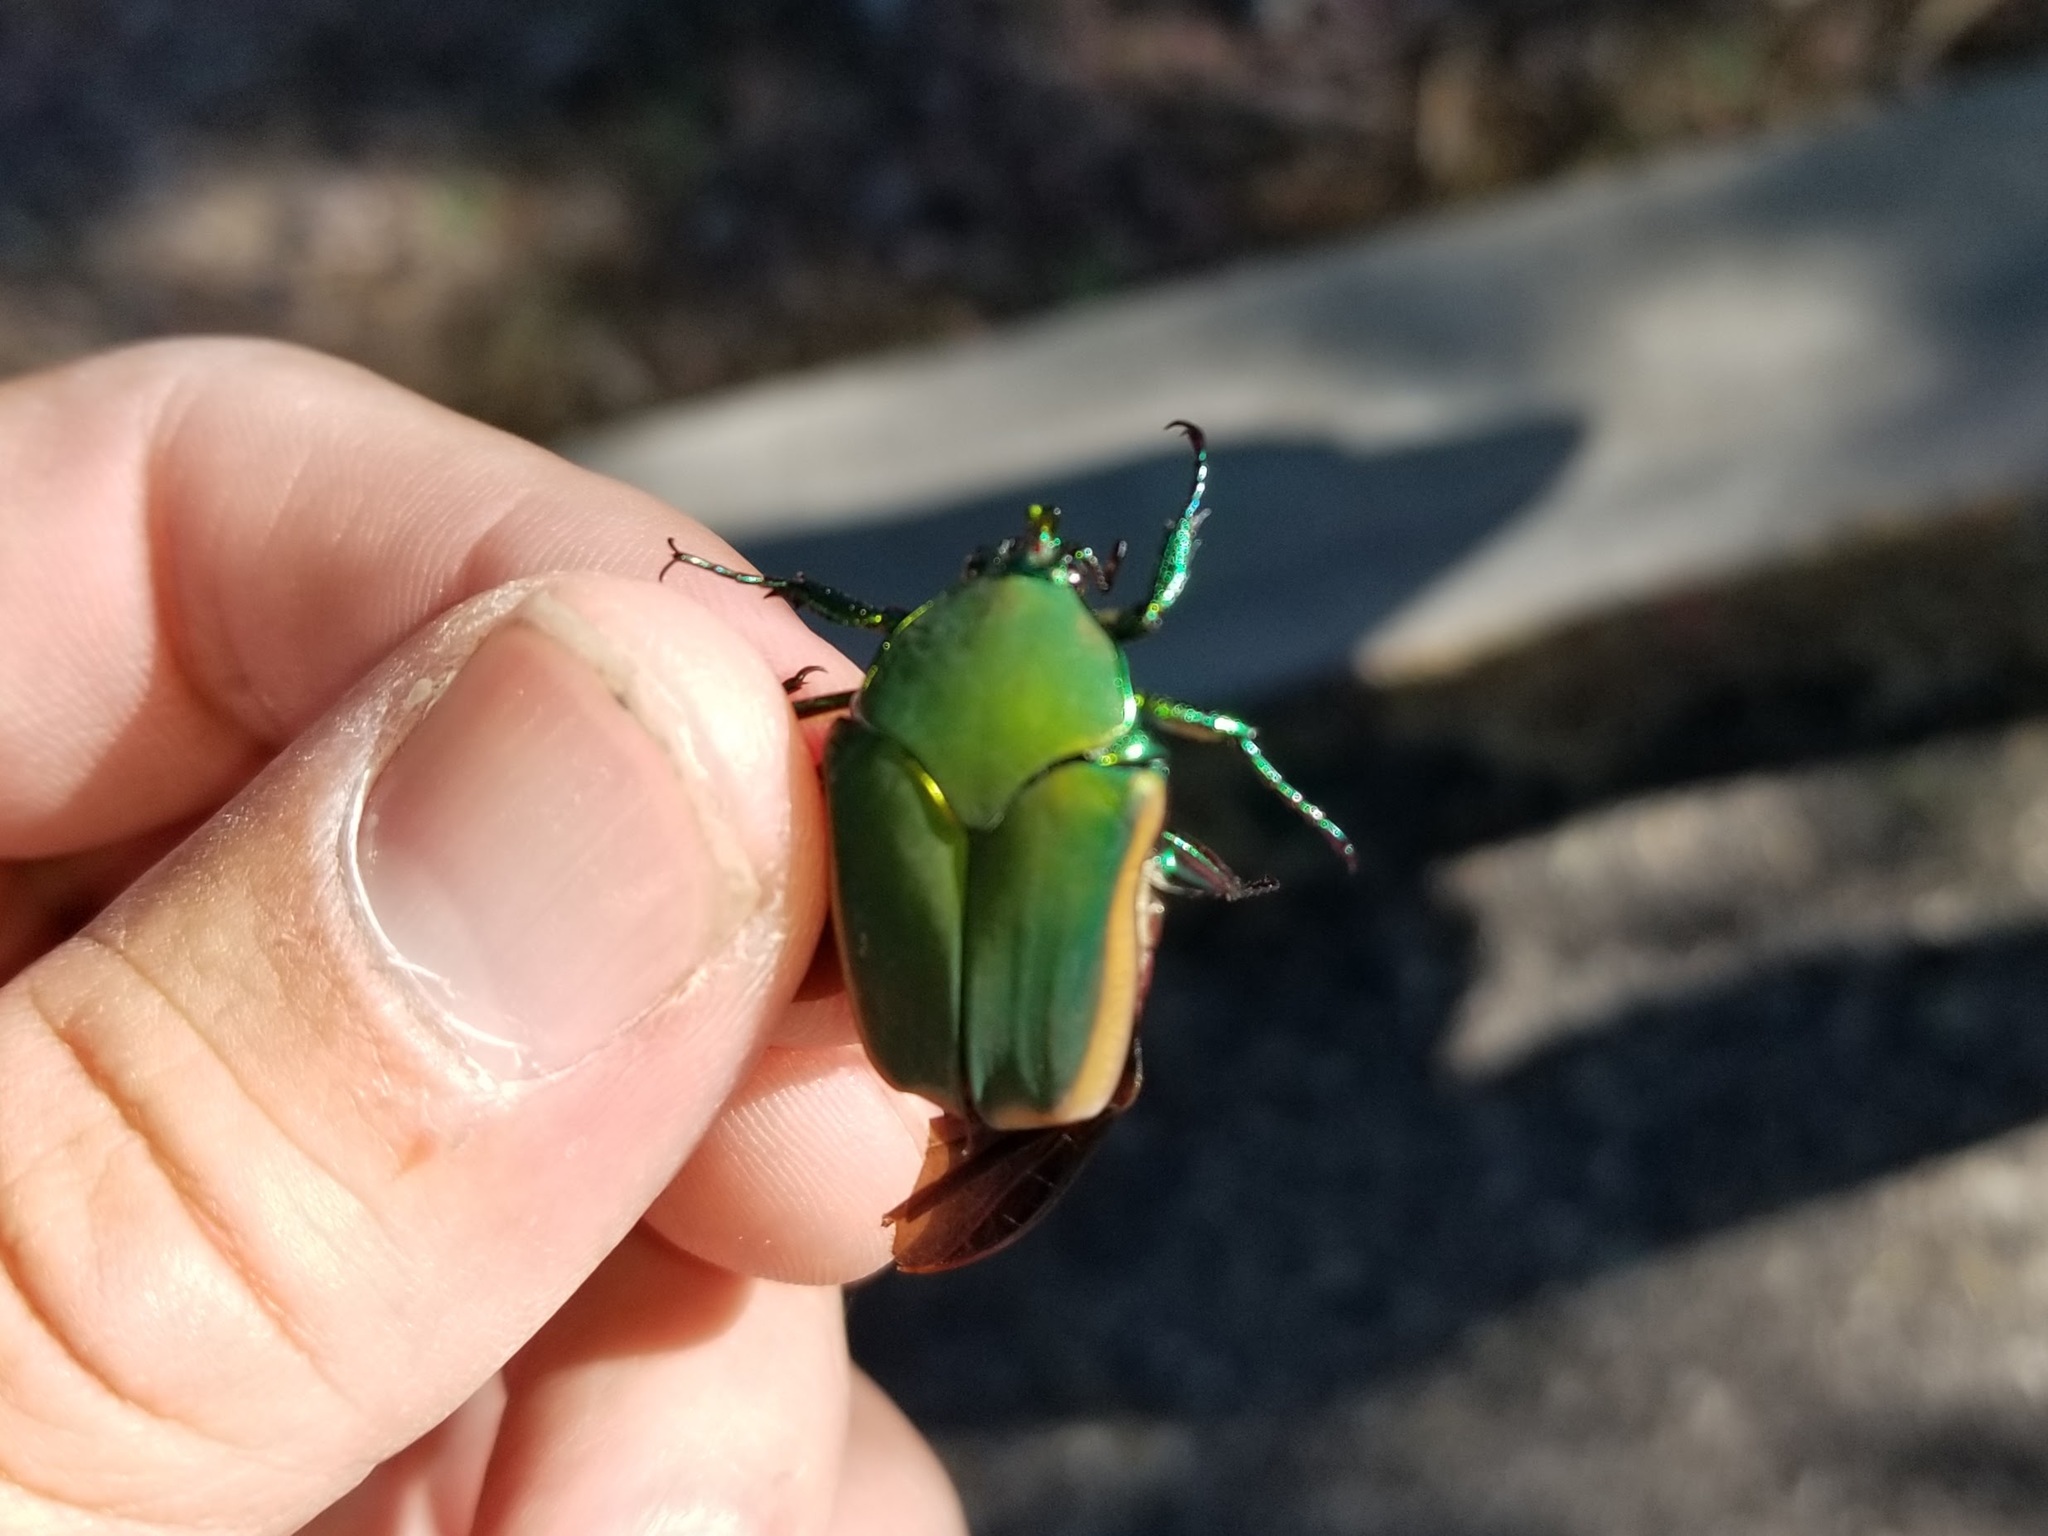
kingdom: Animalia
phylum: Arthropoda
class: Insecta
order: Coleoptera
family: Scarabaeidae
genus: Cotinis
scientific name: Cotinis mutabilis
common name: Figeater beetle
